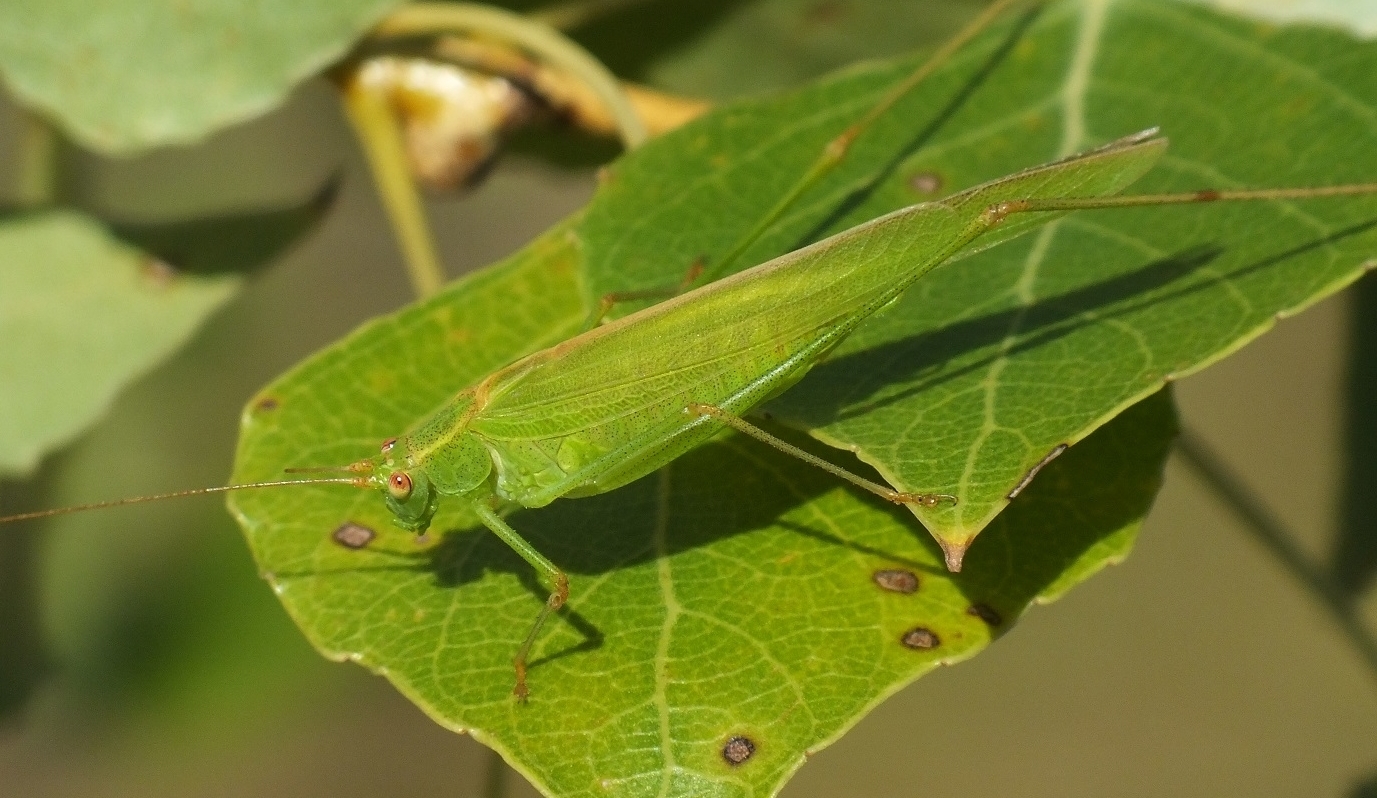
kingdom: Animalia
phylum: Arthropoda
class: Insecta
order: Orthoptera
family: Tettigoniidae
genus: Phaneroptera
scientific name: Phaneroptera falcata
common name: Sickle-bearing bush-cricket
